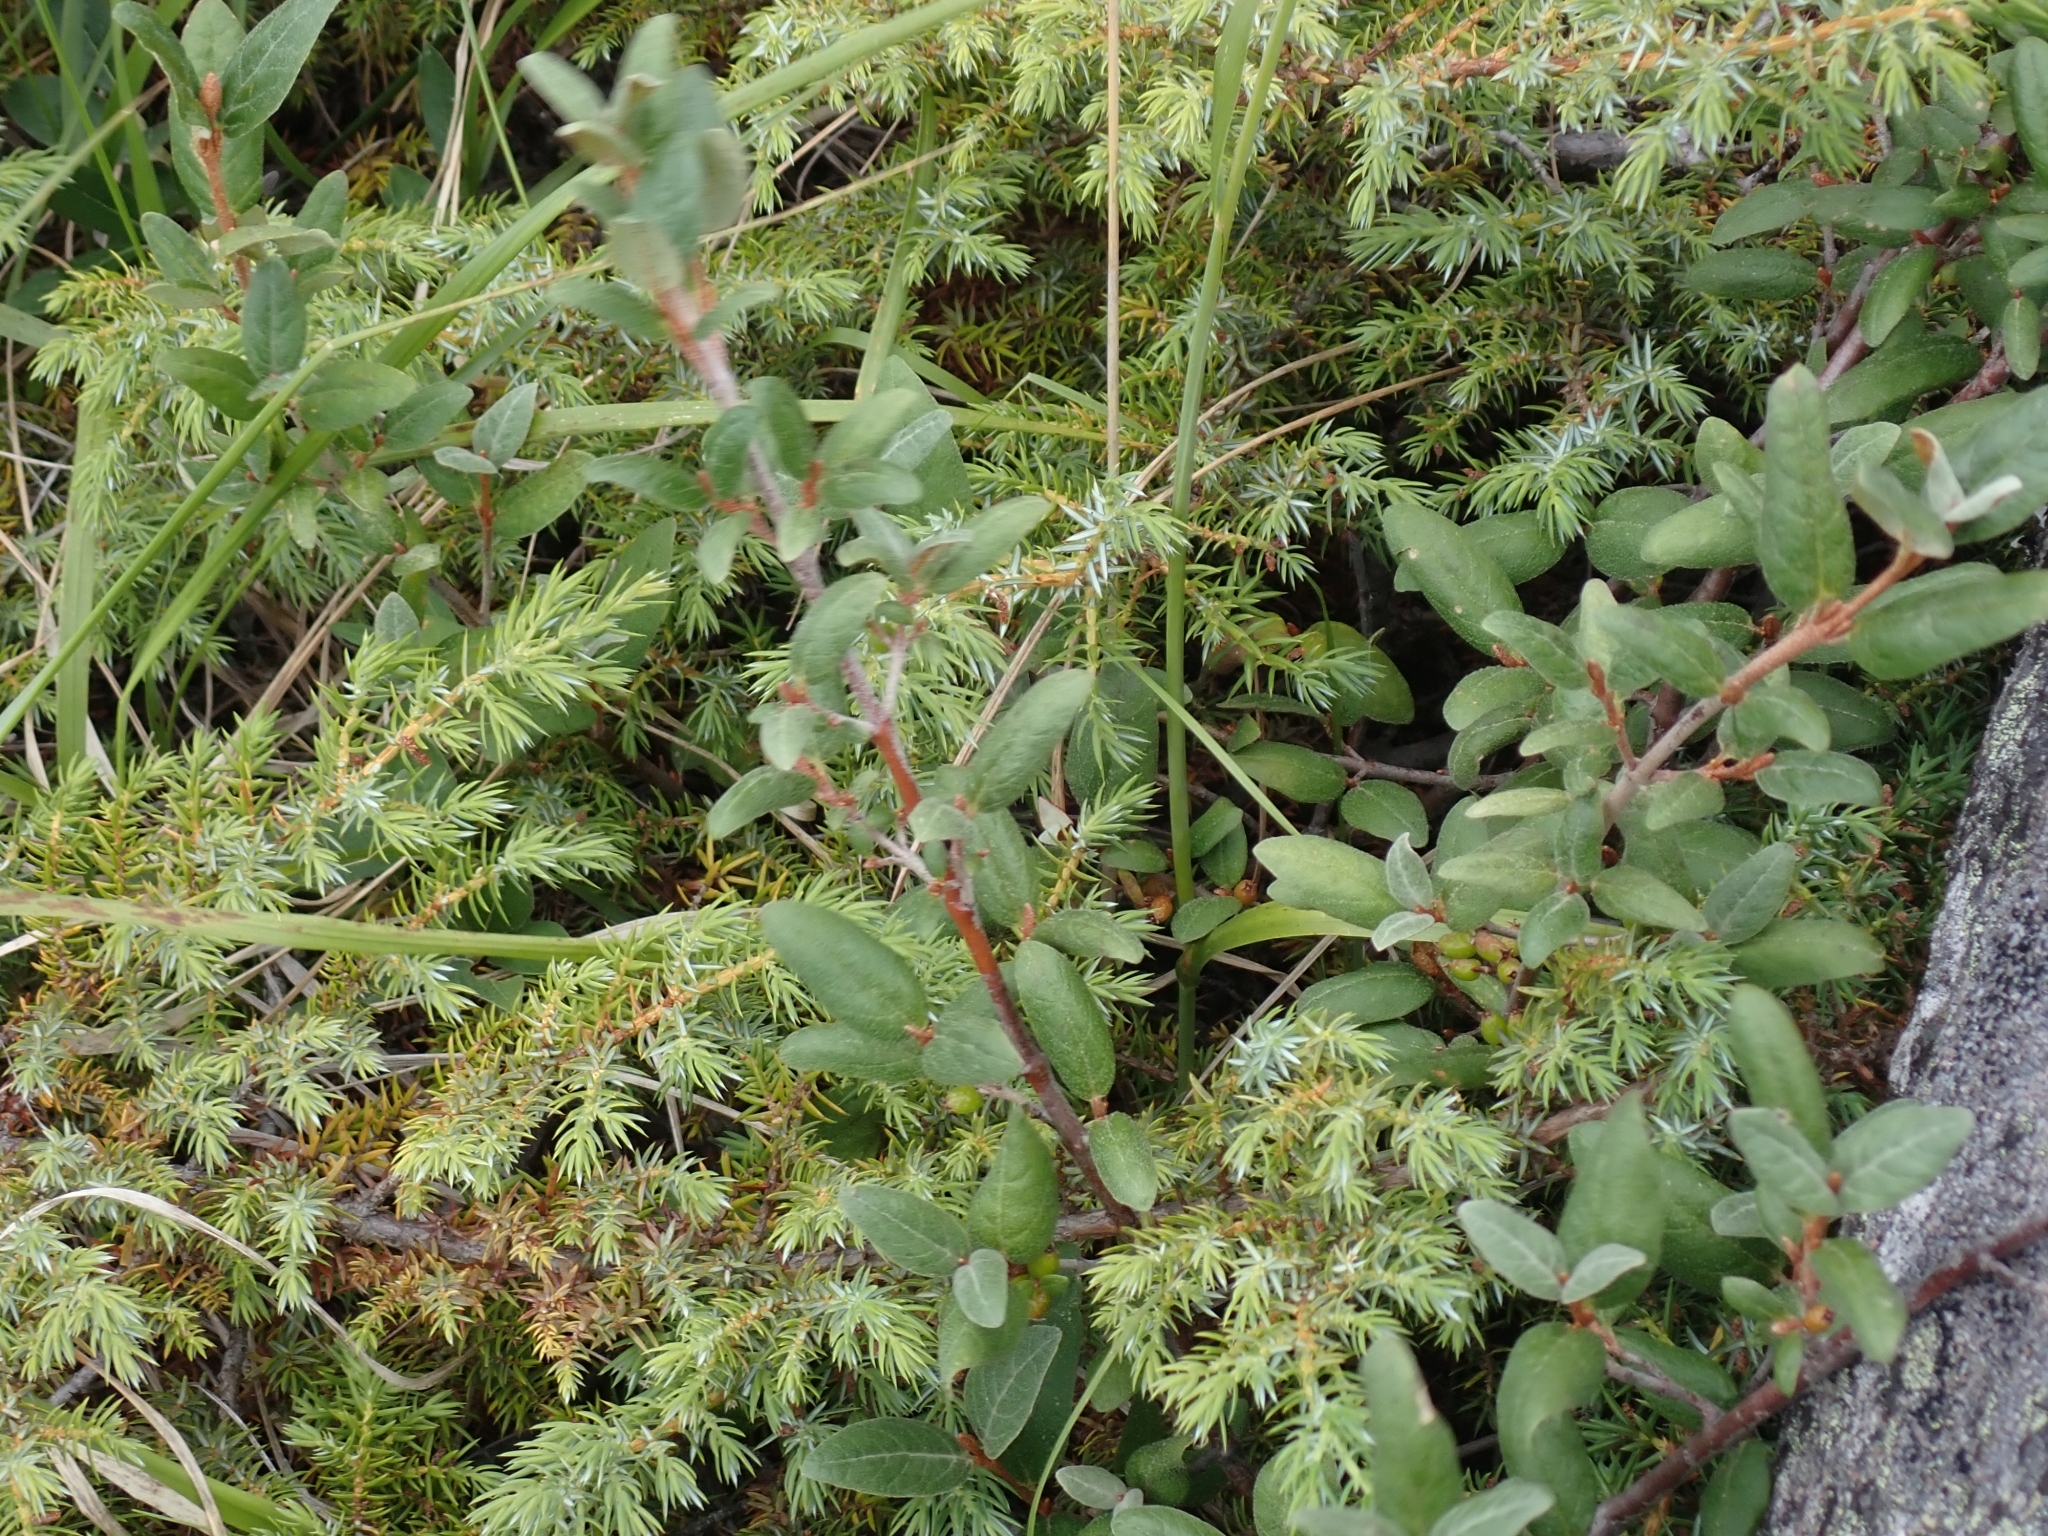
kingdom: Plantae
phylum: Tracheophyta
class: Magnoliopsida
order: Rosales
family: Elaeagnaceae
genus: Shepherdia
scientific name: Shepherdia canadensis
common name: Soapberry
